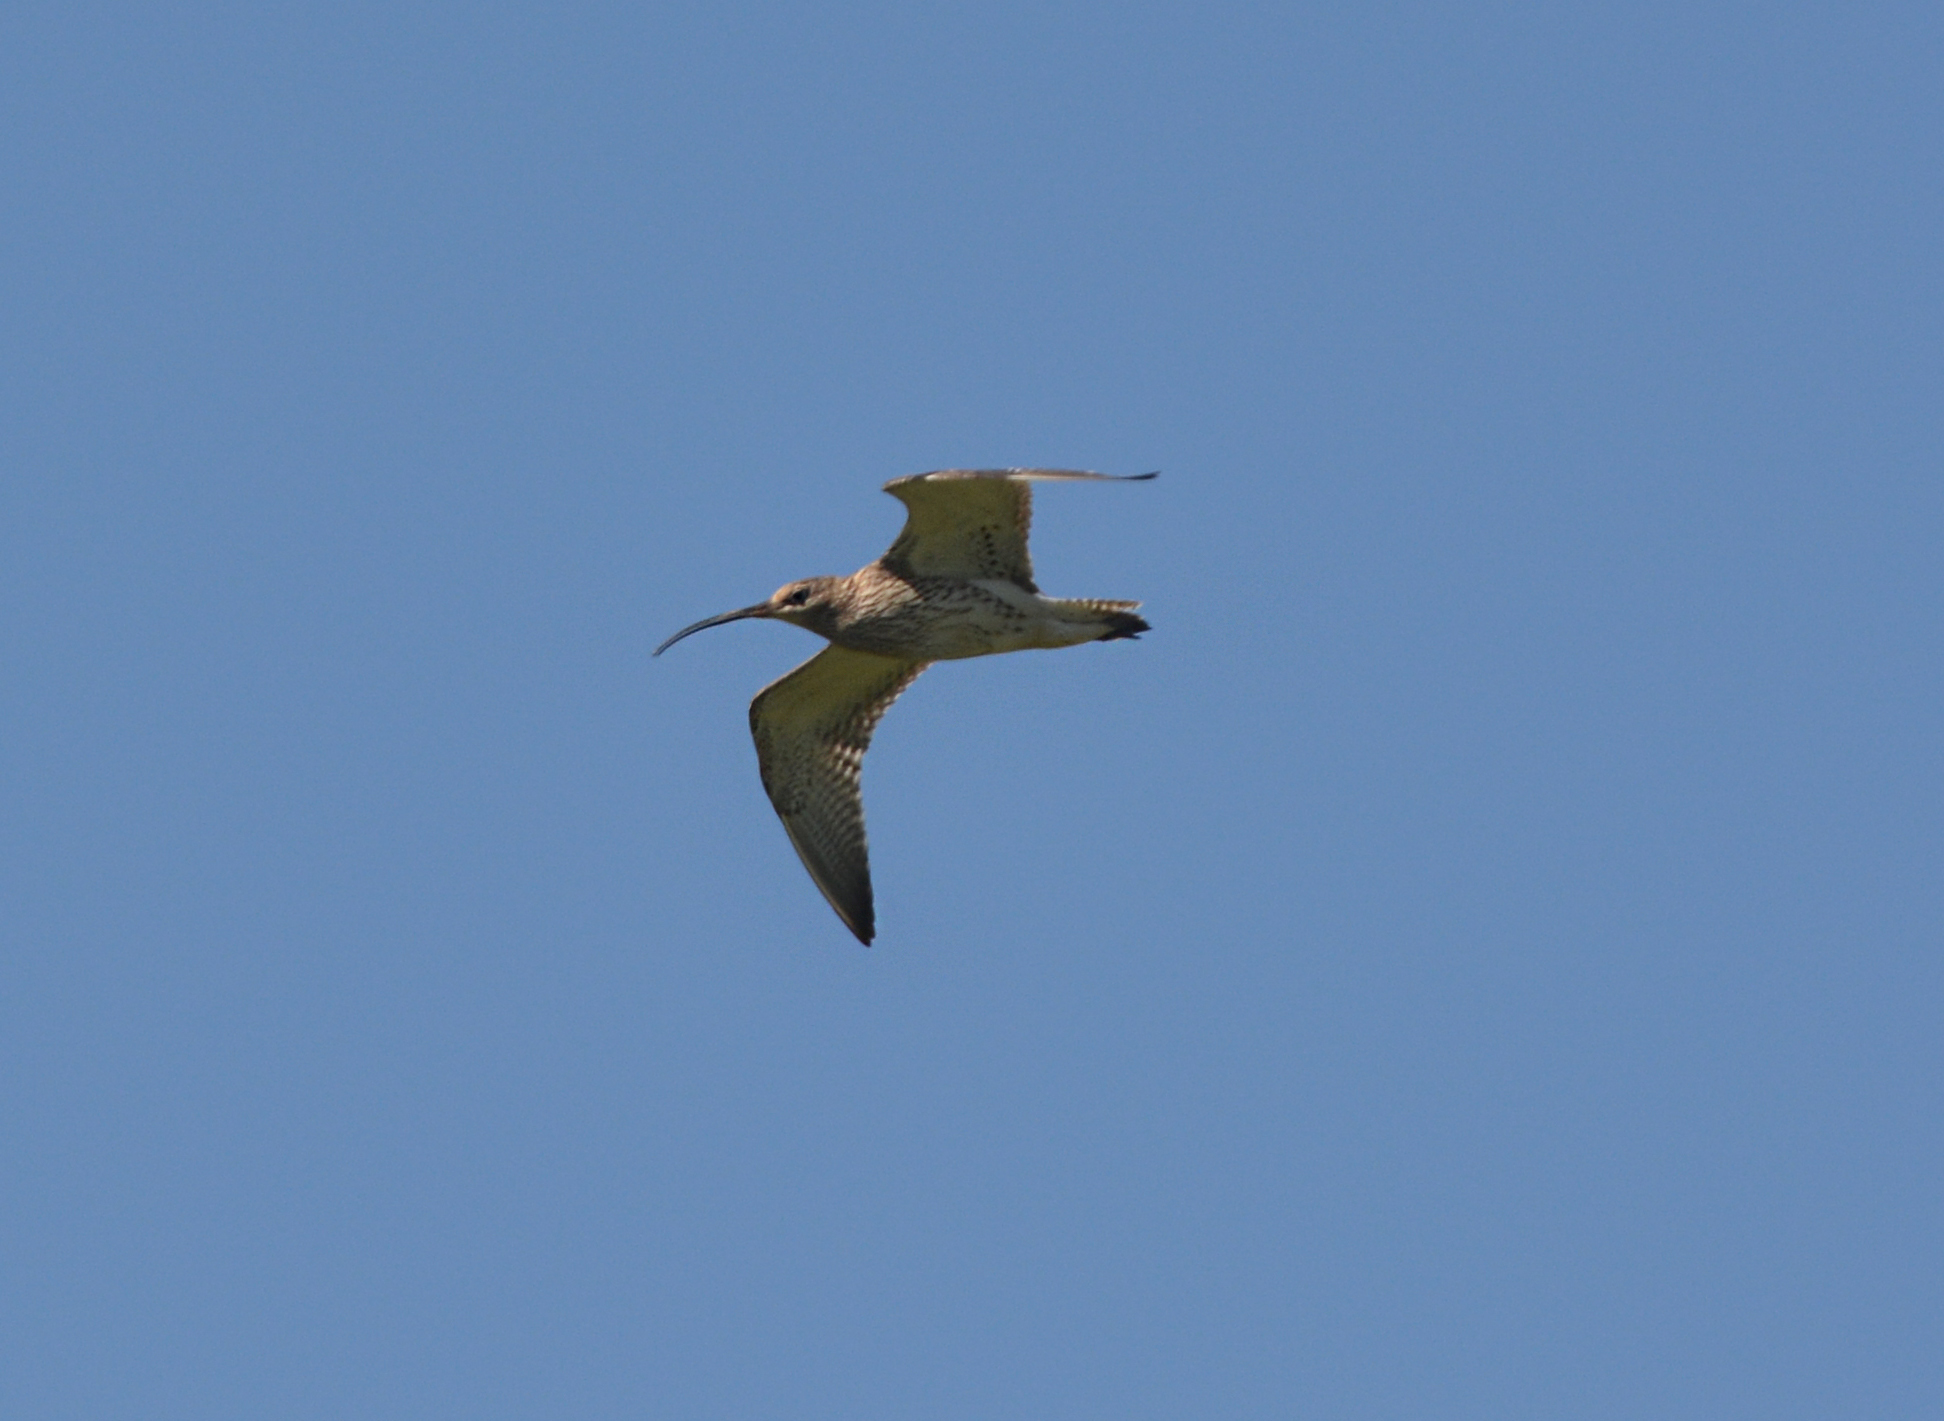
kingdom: Animalia
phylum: Chordata
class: Aves
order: Charadriiformes
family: Scolopacidae
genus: Numenius
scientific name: Numenius arquata
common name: Eurasian curlew
